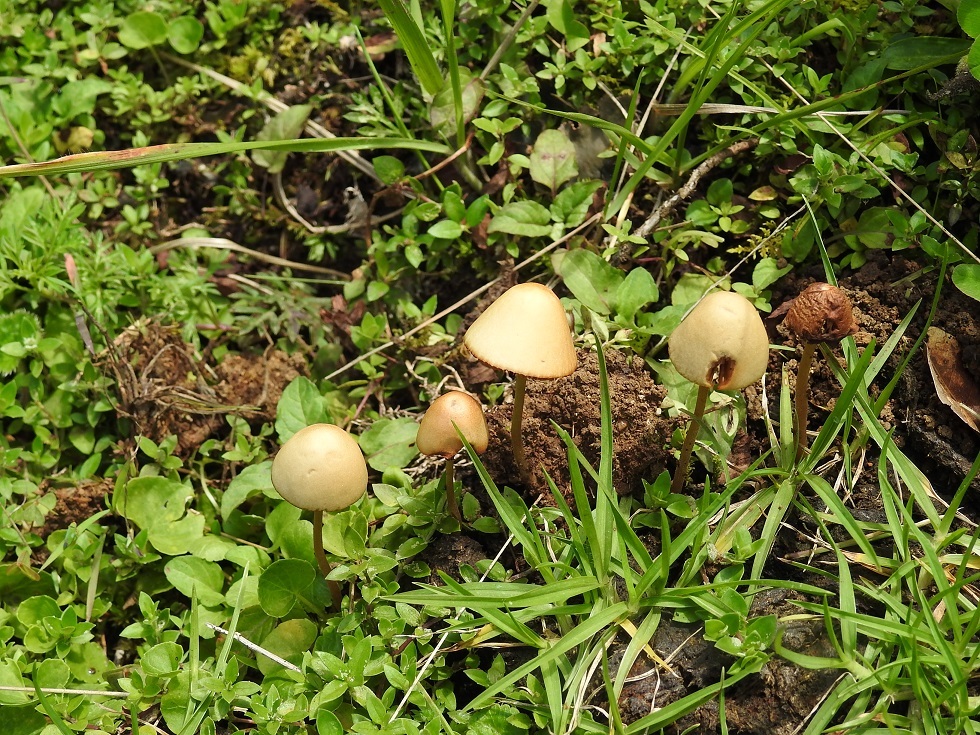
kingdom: Fungi
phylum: Basidiomycota
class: Agaricomycetes
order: Agaricales
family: Bolbitiaceae
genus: Conocybe
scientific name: Conocybe coprophila
